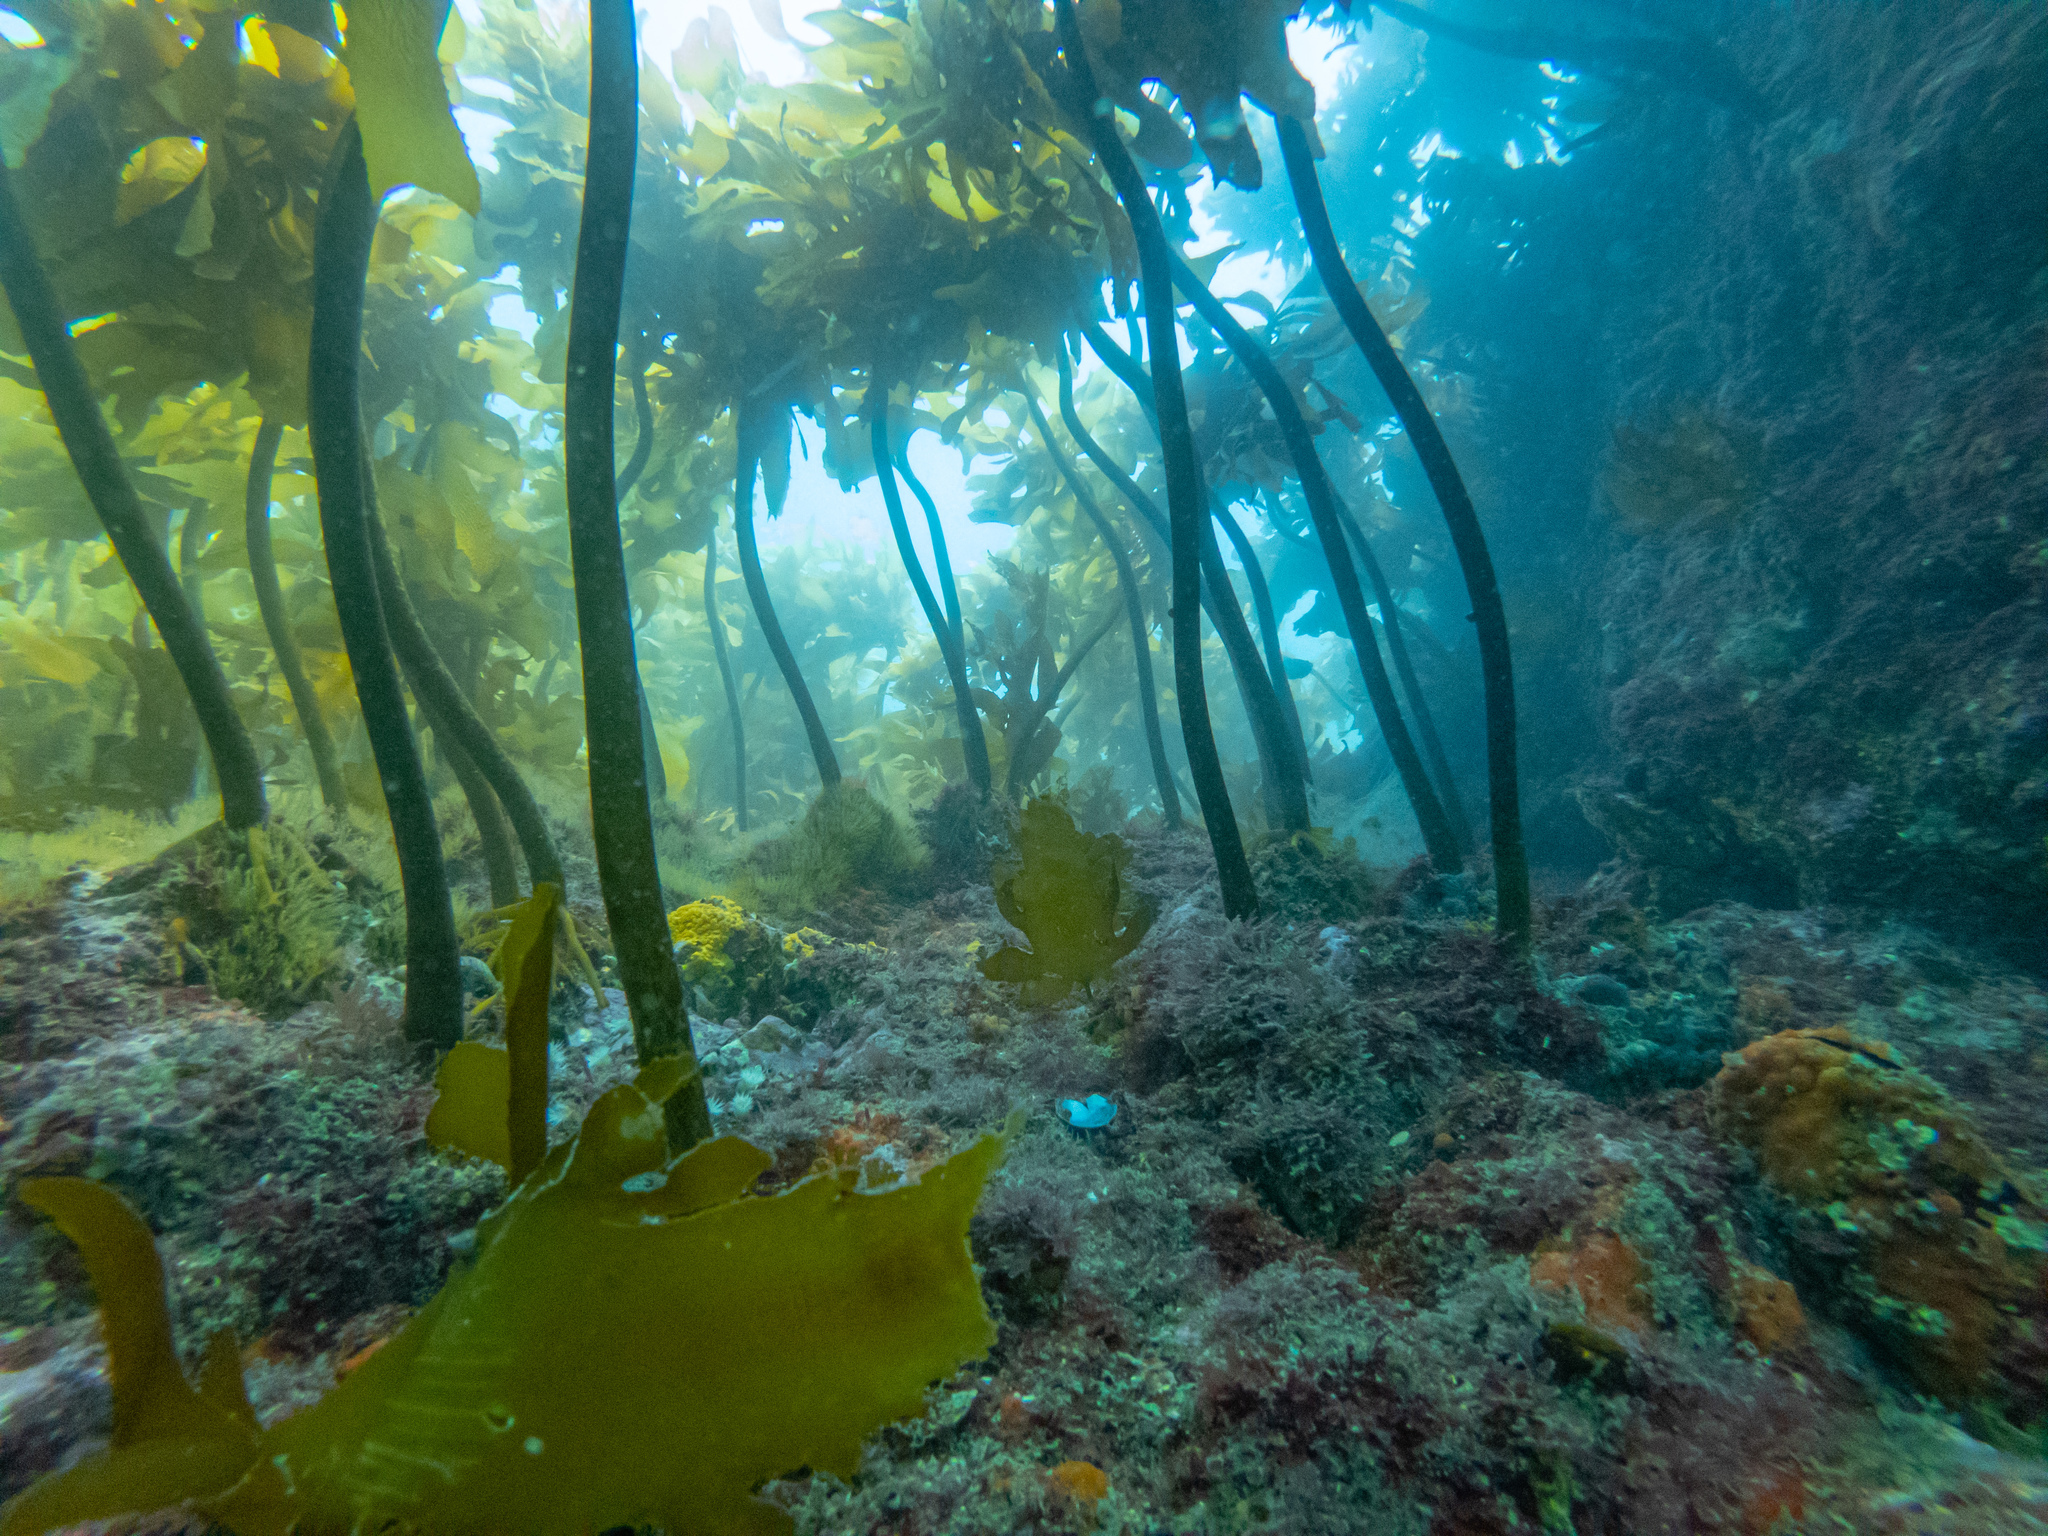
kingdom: Chromista
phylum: Ochrophyta
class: Phaeophyceae
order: Laminariales
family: Lessoniaceae
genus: Ecklonia
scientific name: Ecklonia radiata
